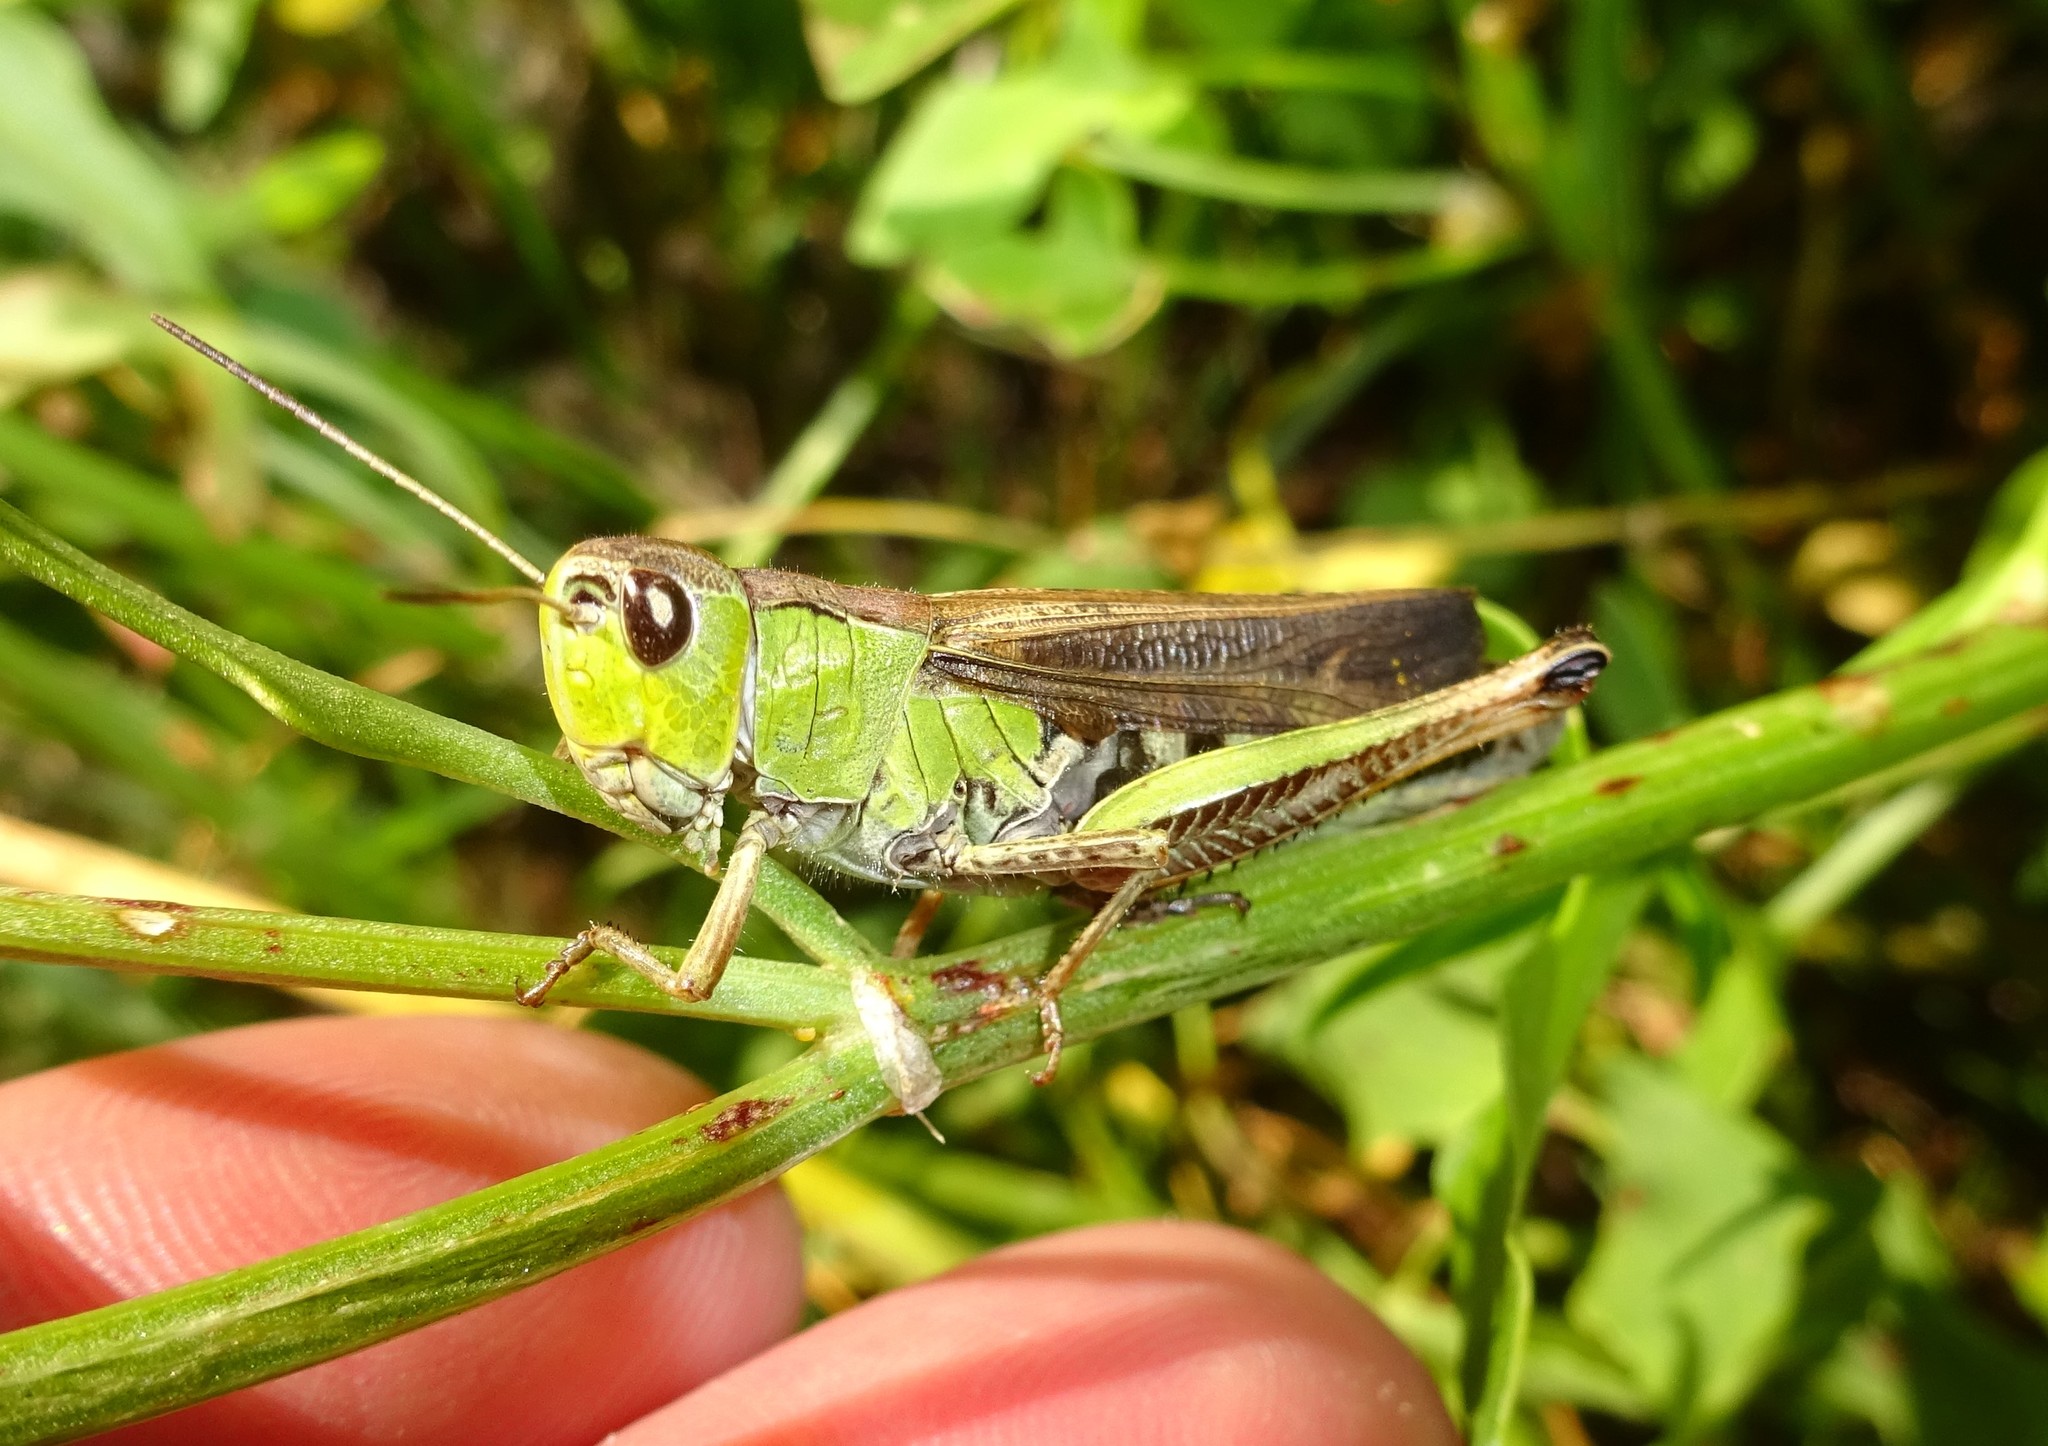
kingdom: Animalia
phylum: Arthropoda
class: Insecta
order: Orthoptera
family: Acrididae
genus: Stauroderus
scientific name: Stauroderus scalaris
